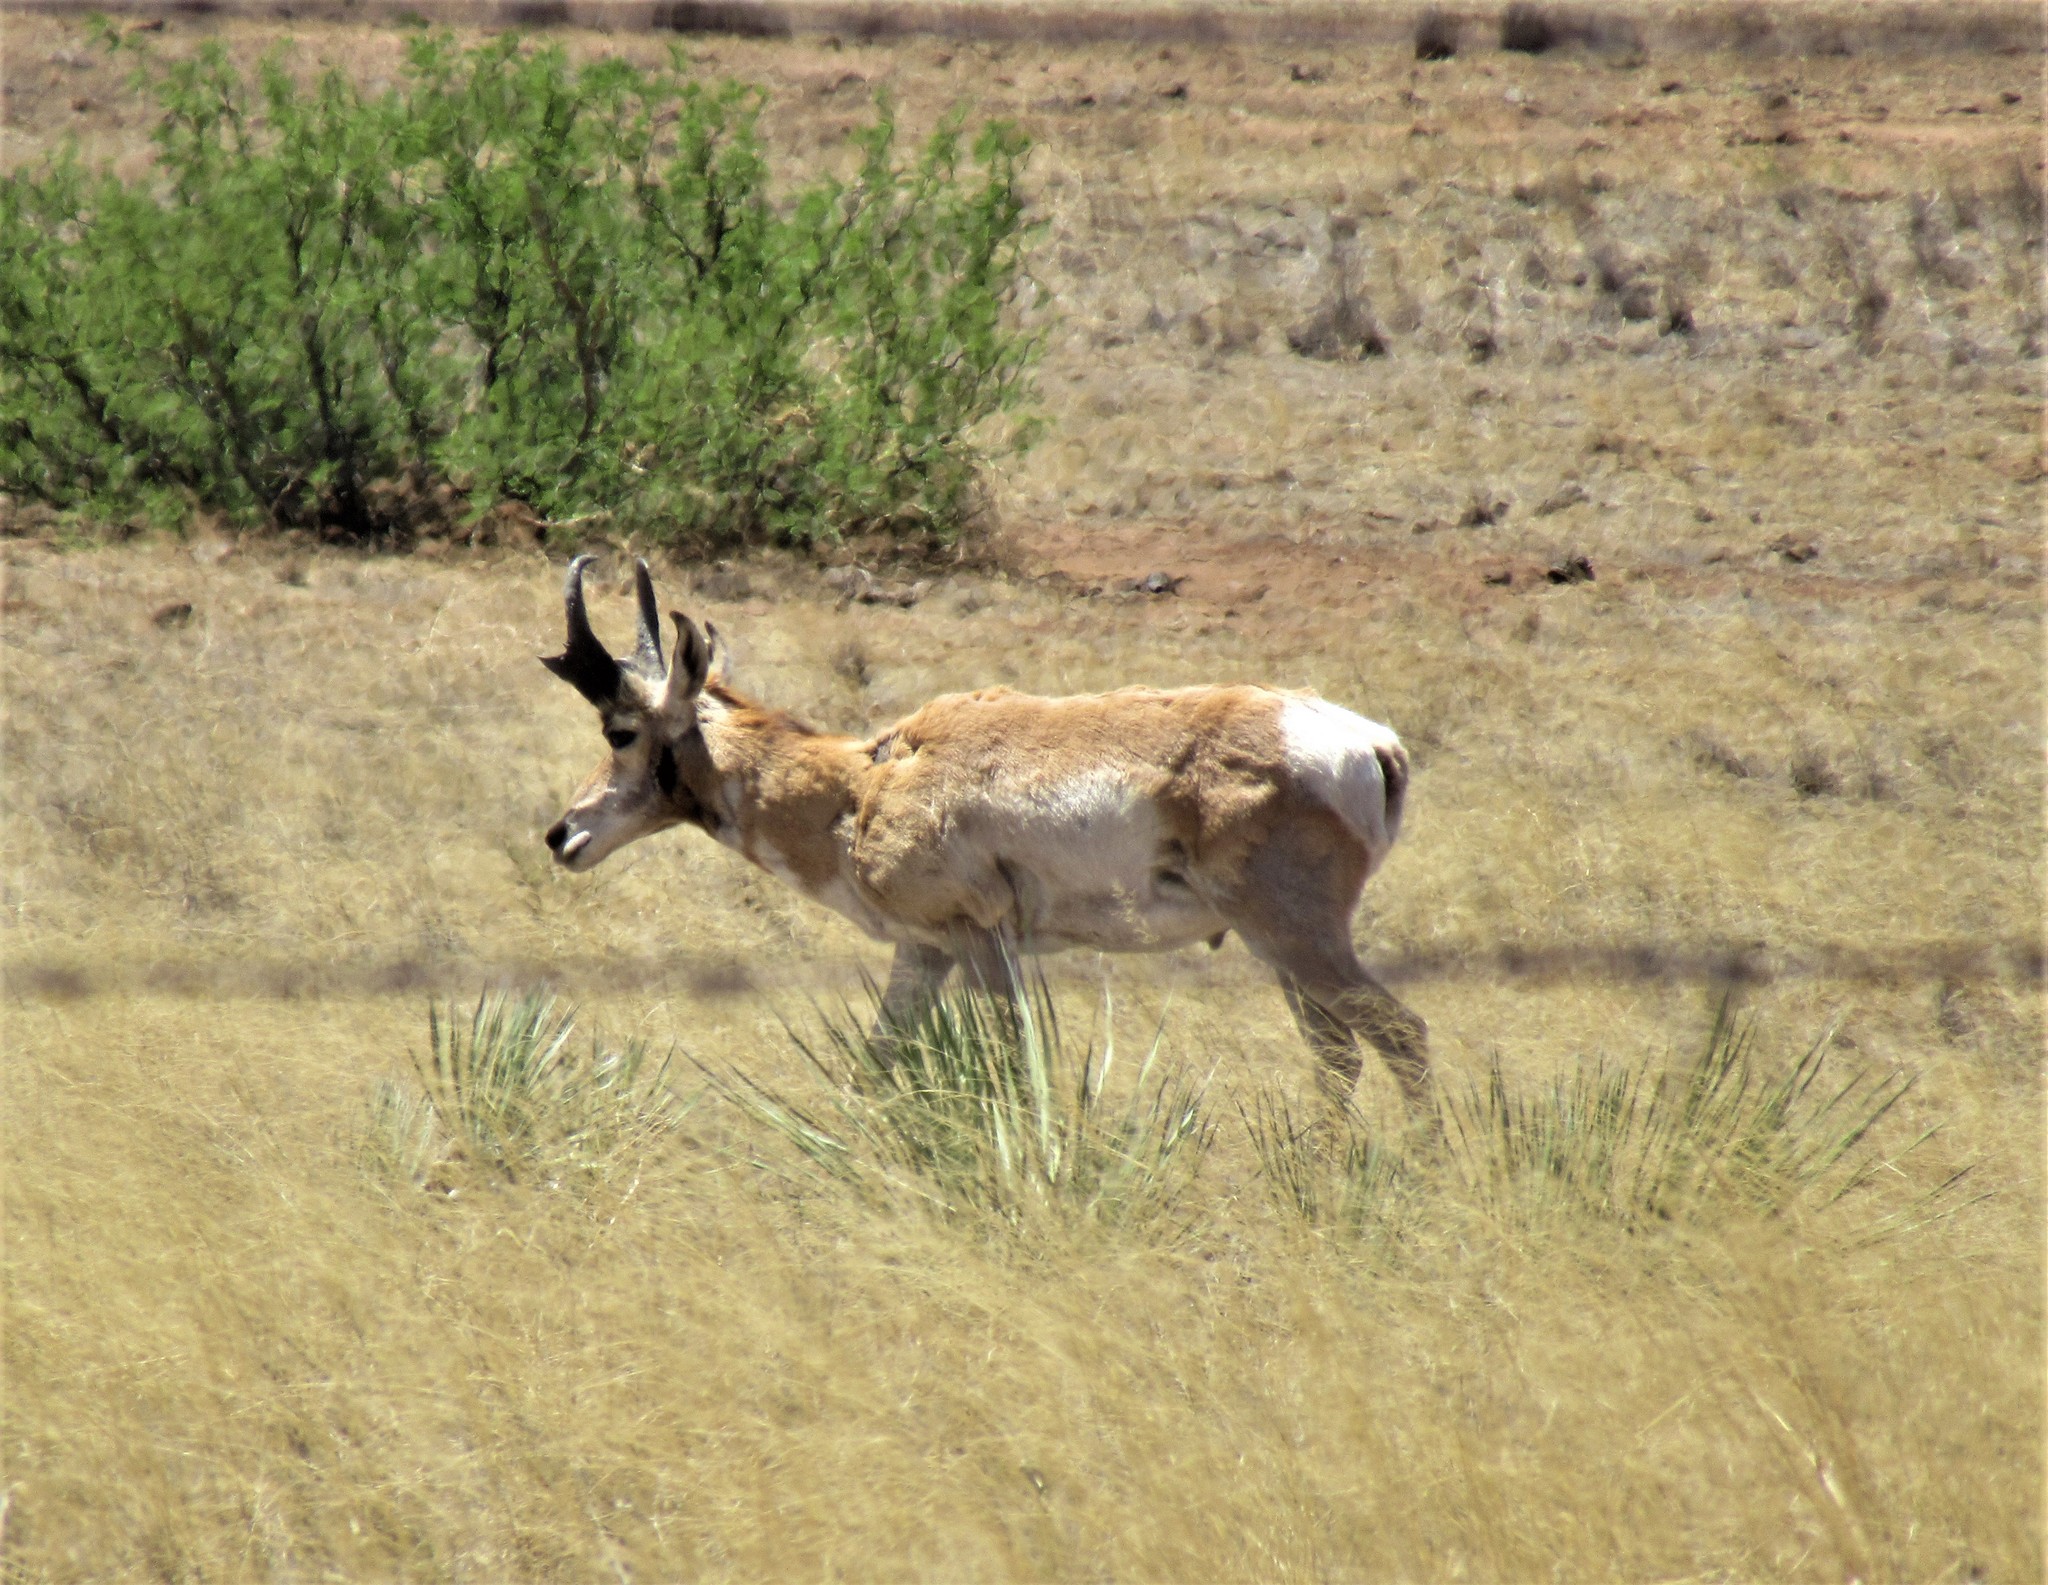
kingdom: Animalia
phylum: Chordata
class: Mammalia
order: Artiodactyla
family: Antilocapridae
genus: Antilocapra
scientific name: Antilocapra americana
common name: Pronghorn
